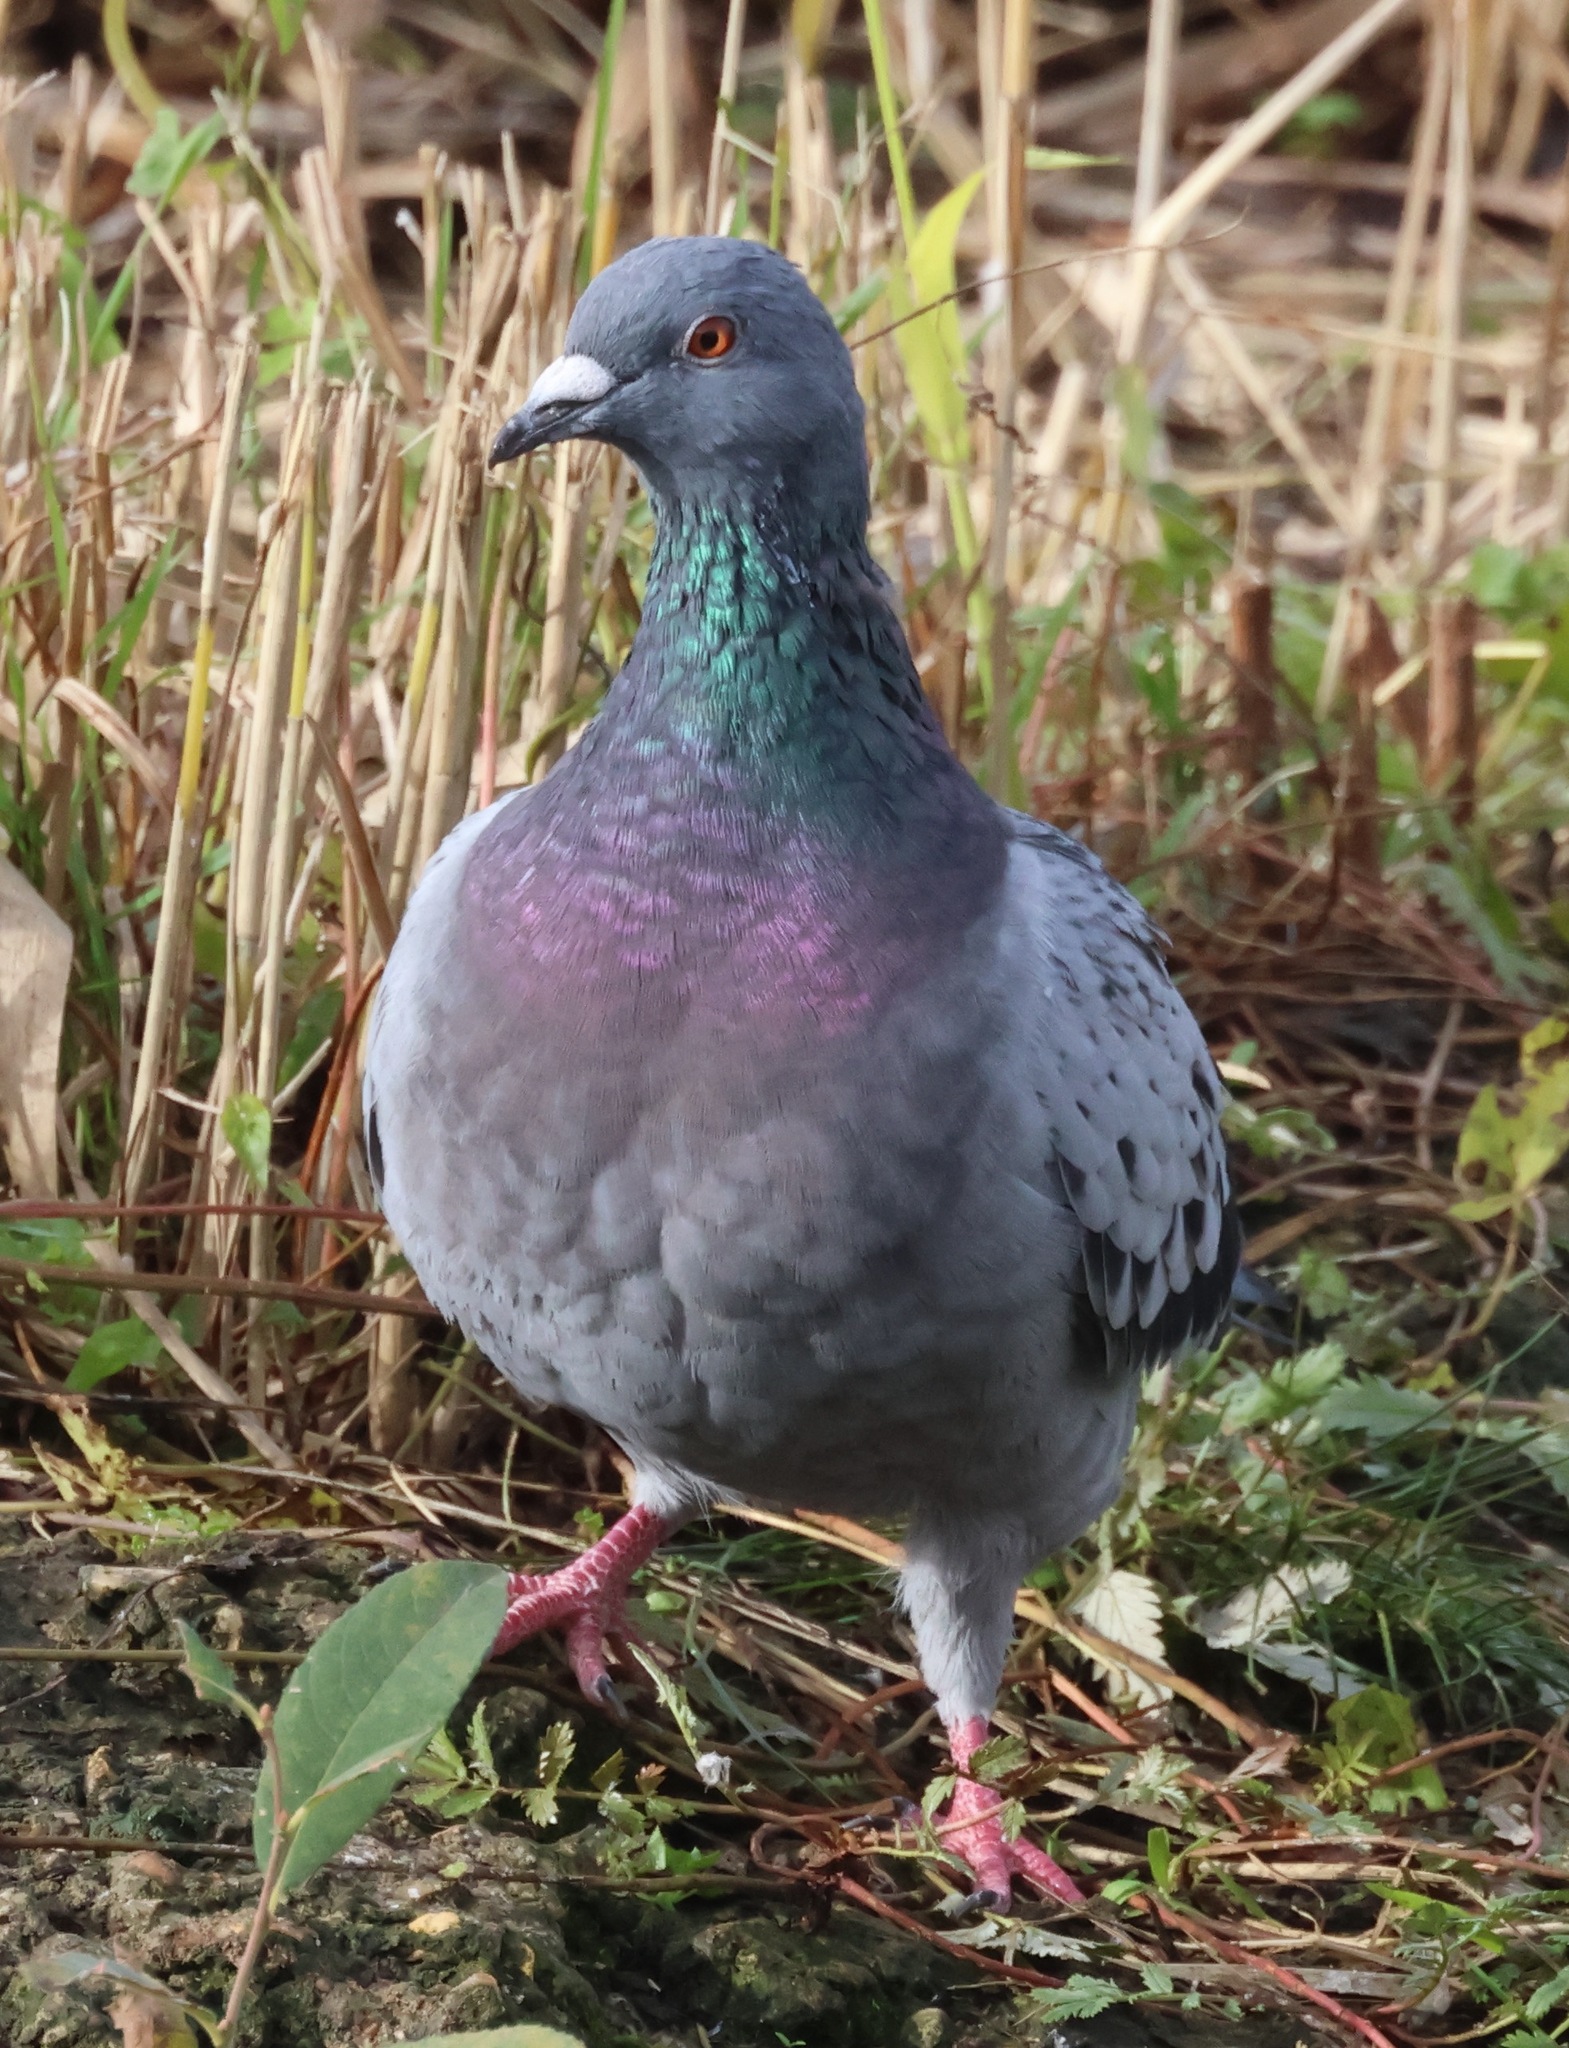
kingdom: Animalia
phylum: Chordata
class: Aves
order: Columbiformes
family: Columbidae
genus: Columba
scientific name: Columba livia
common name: Rock pigeon
